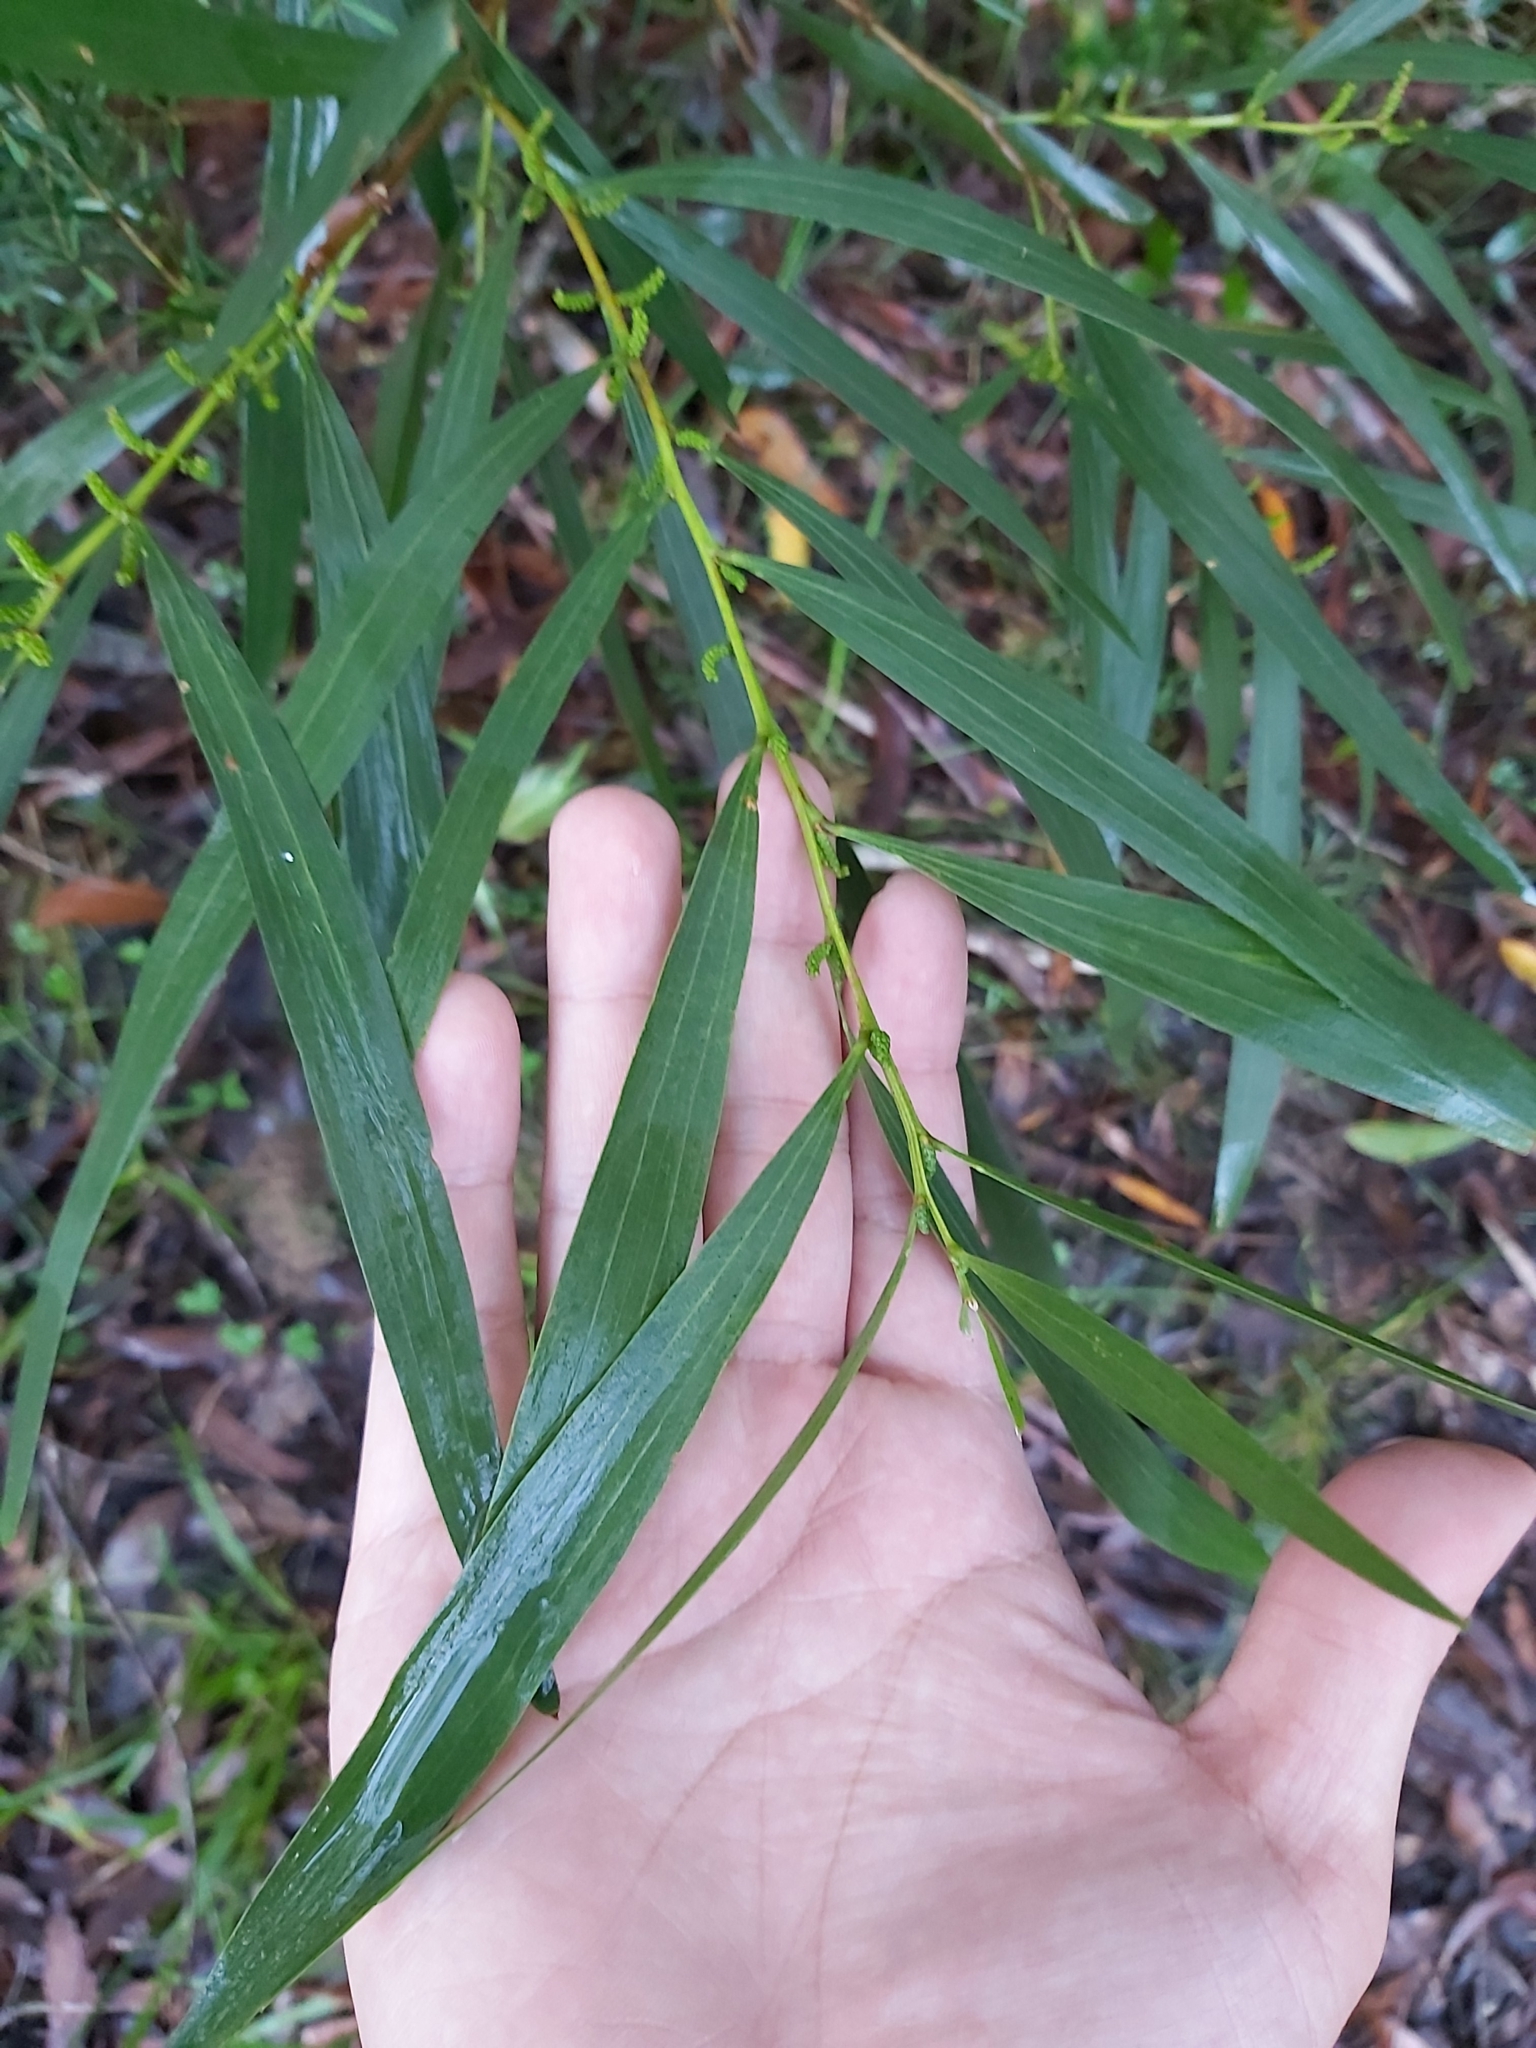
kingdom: Plantae
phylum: Tracheophyta
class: Magnoliopsida
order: Fabales
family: Fabaceae
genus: Acacia
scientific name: Acacia longifolia
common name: Sydney golden wattle
